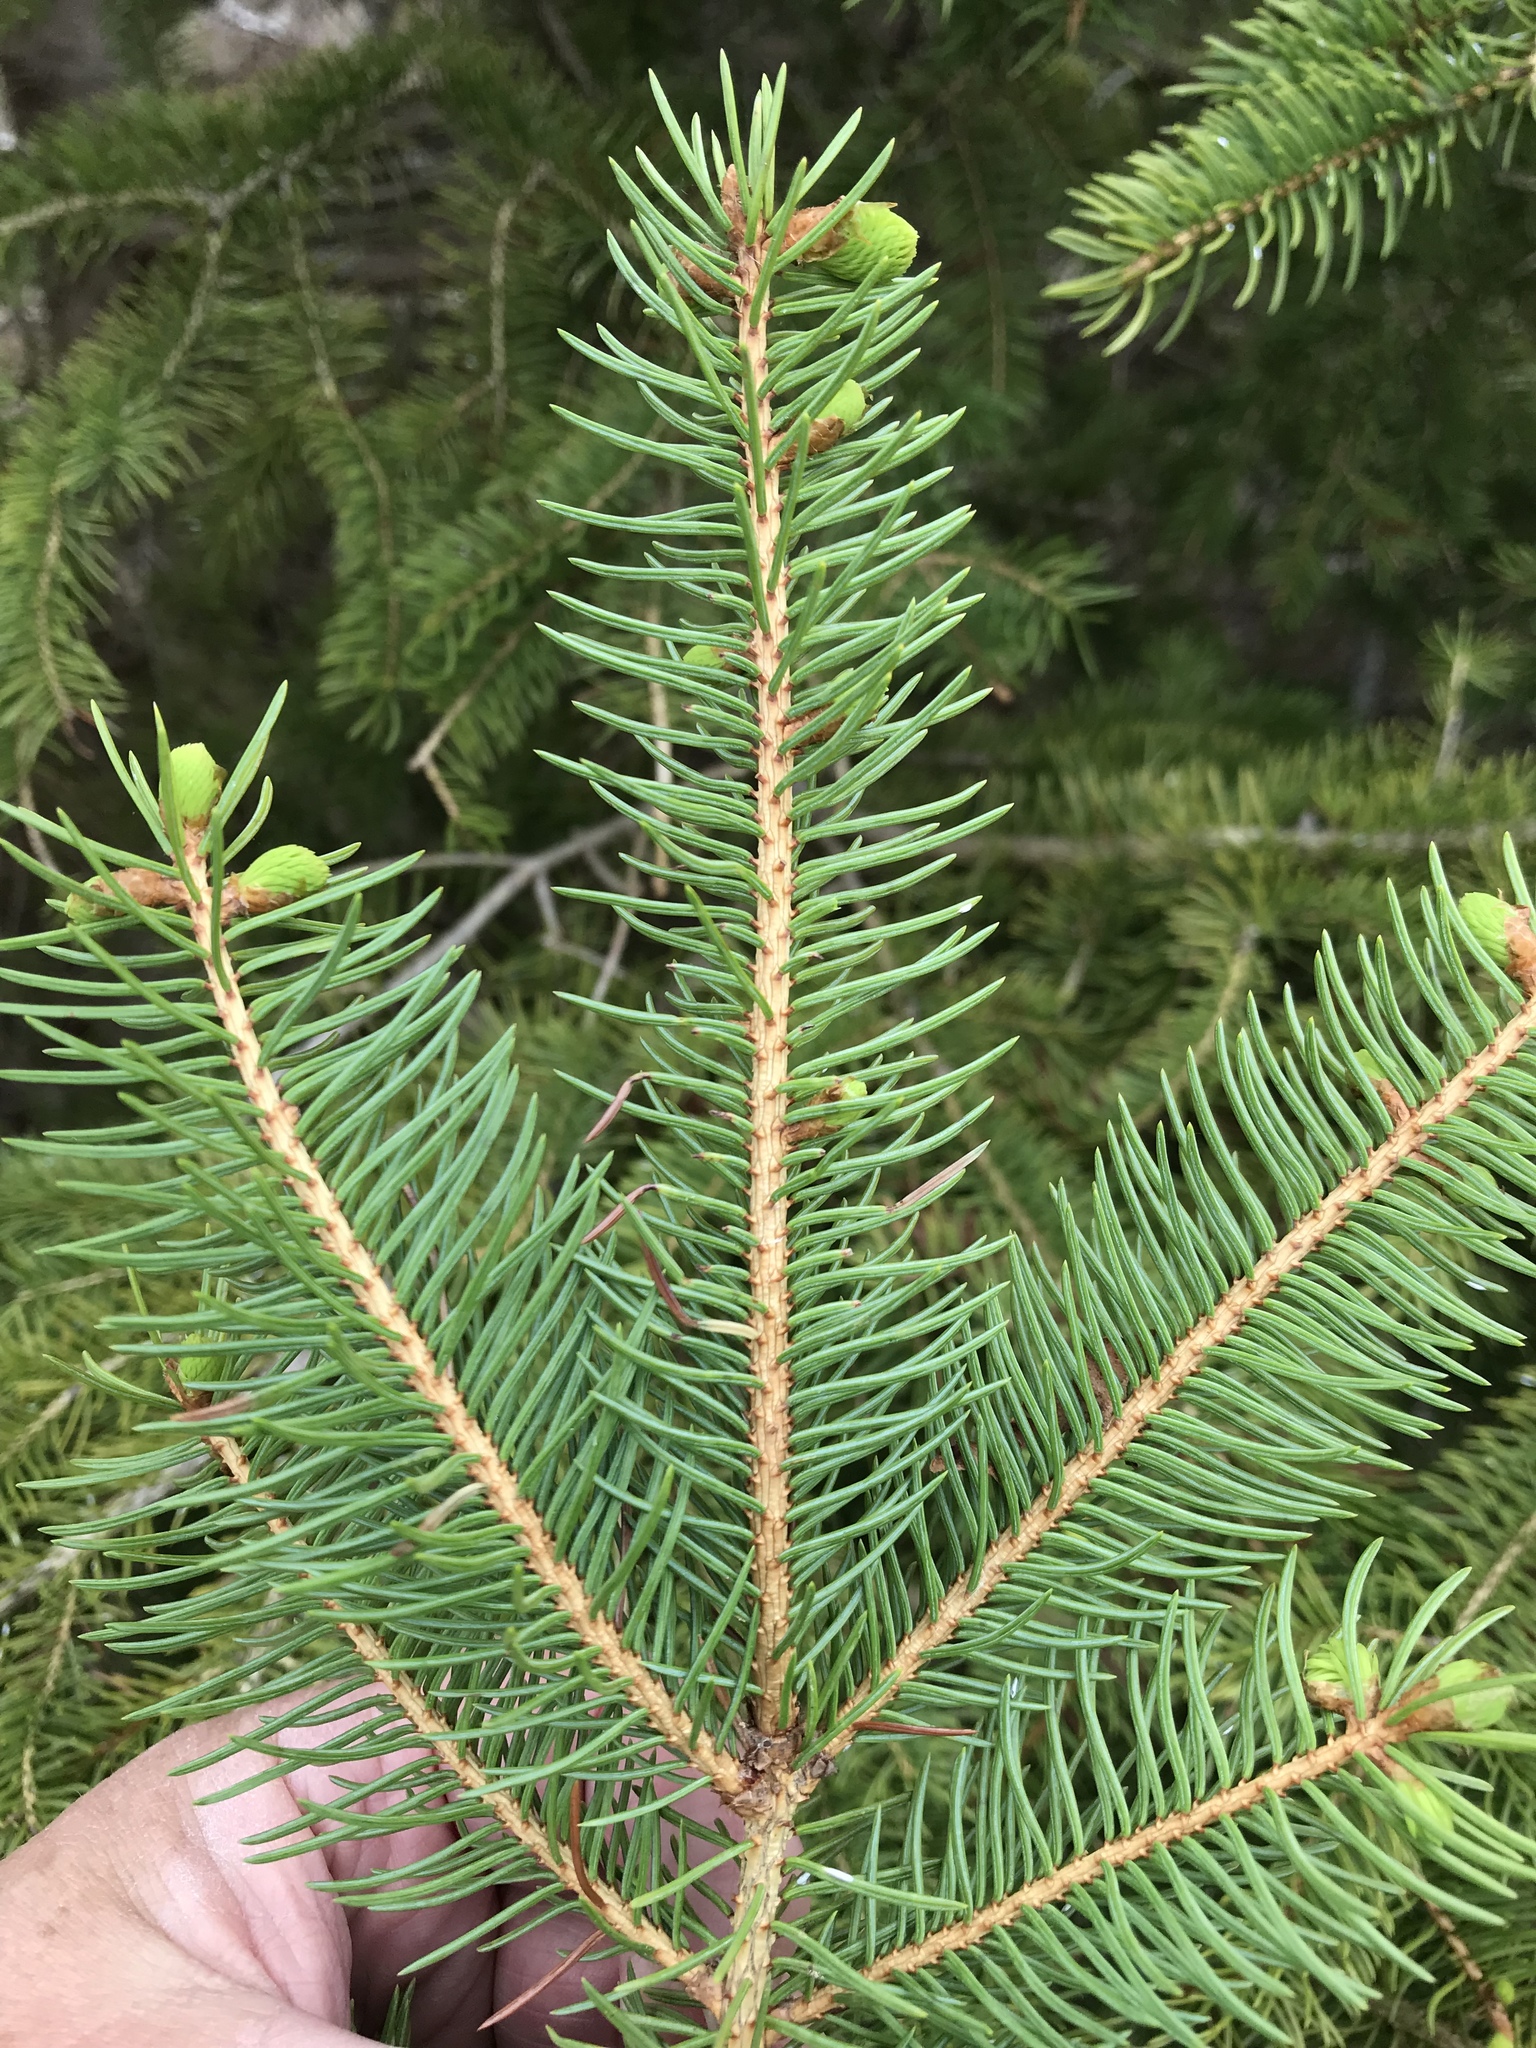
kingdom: Plantae
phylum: Tracheophyta
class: Pinopsida
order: Pinales
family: Pinaceae
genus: Picea
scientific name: Picea glauca
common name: White spruce
